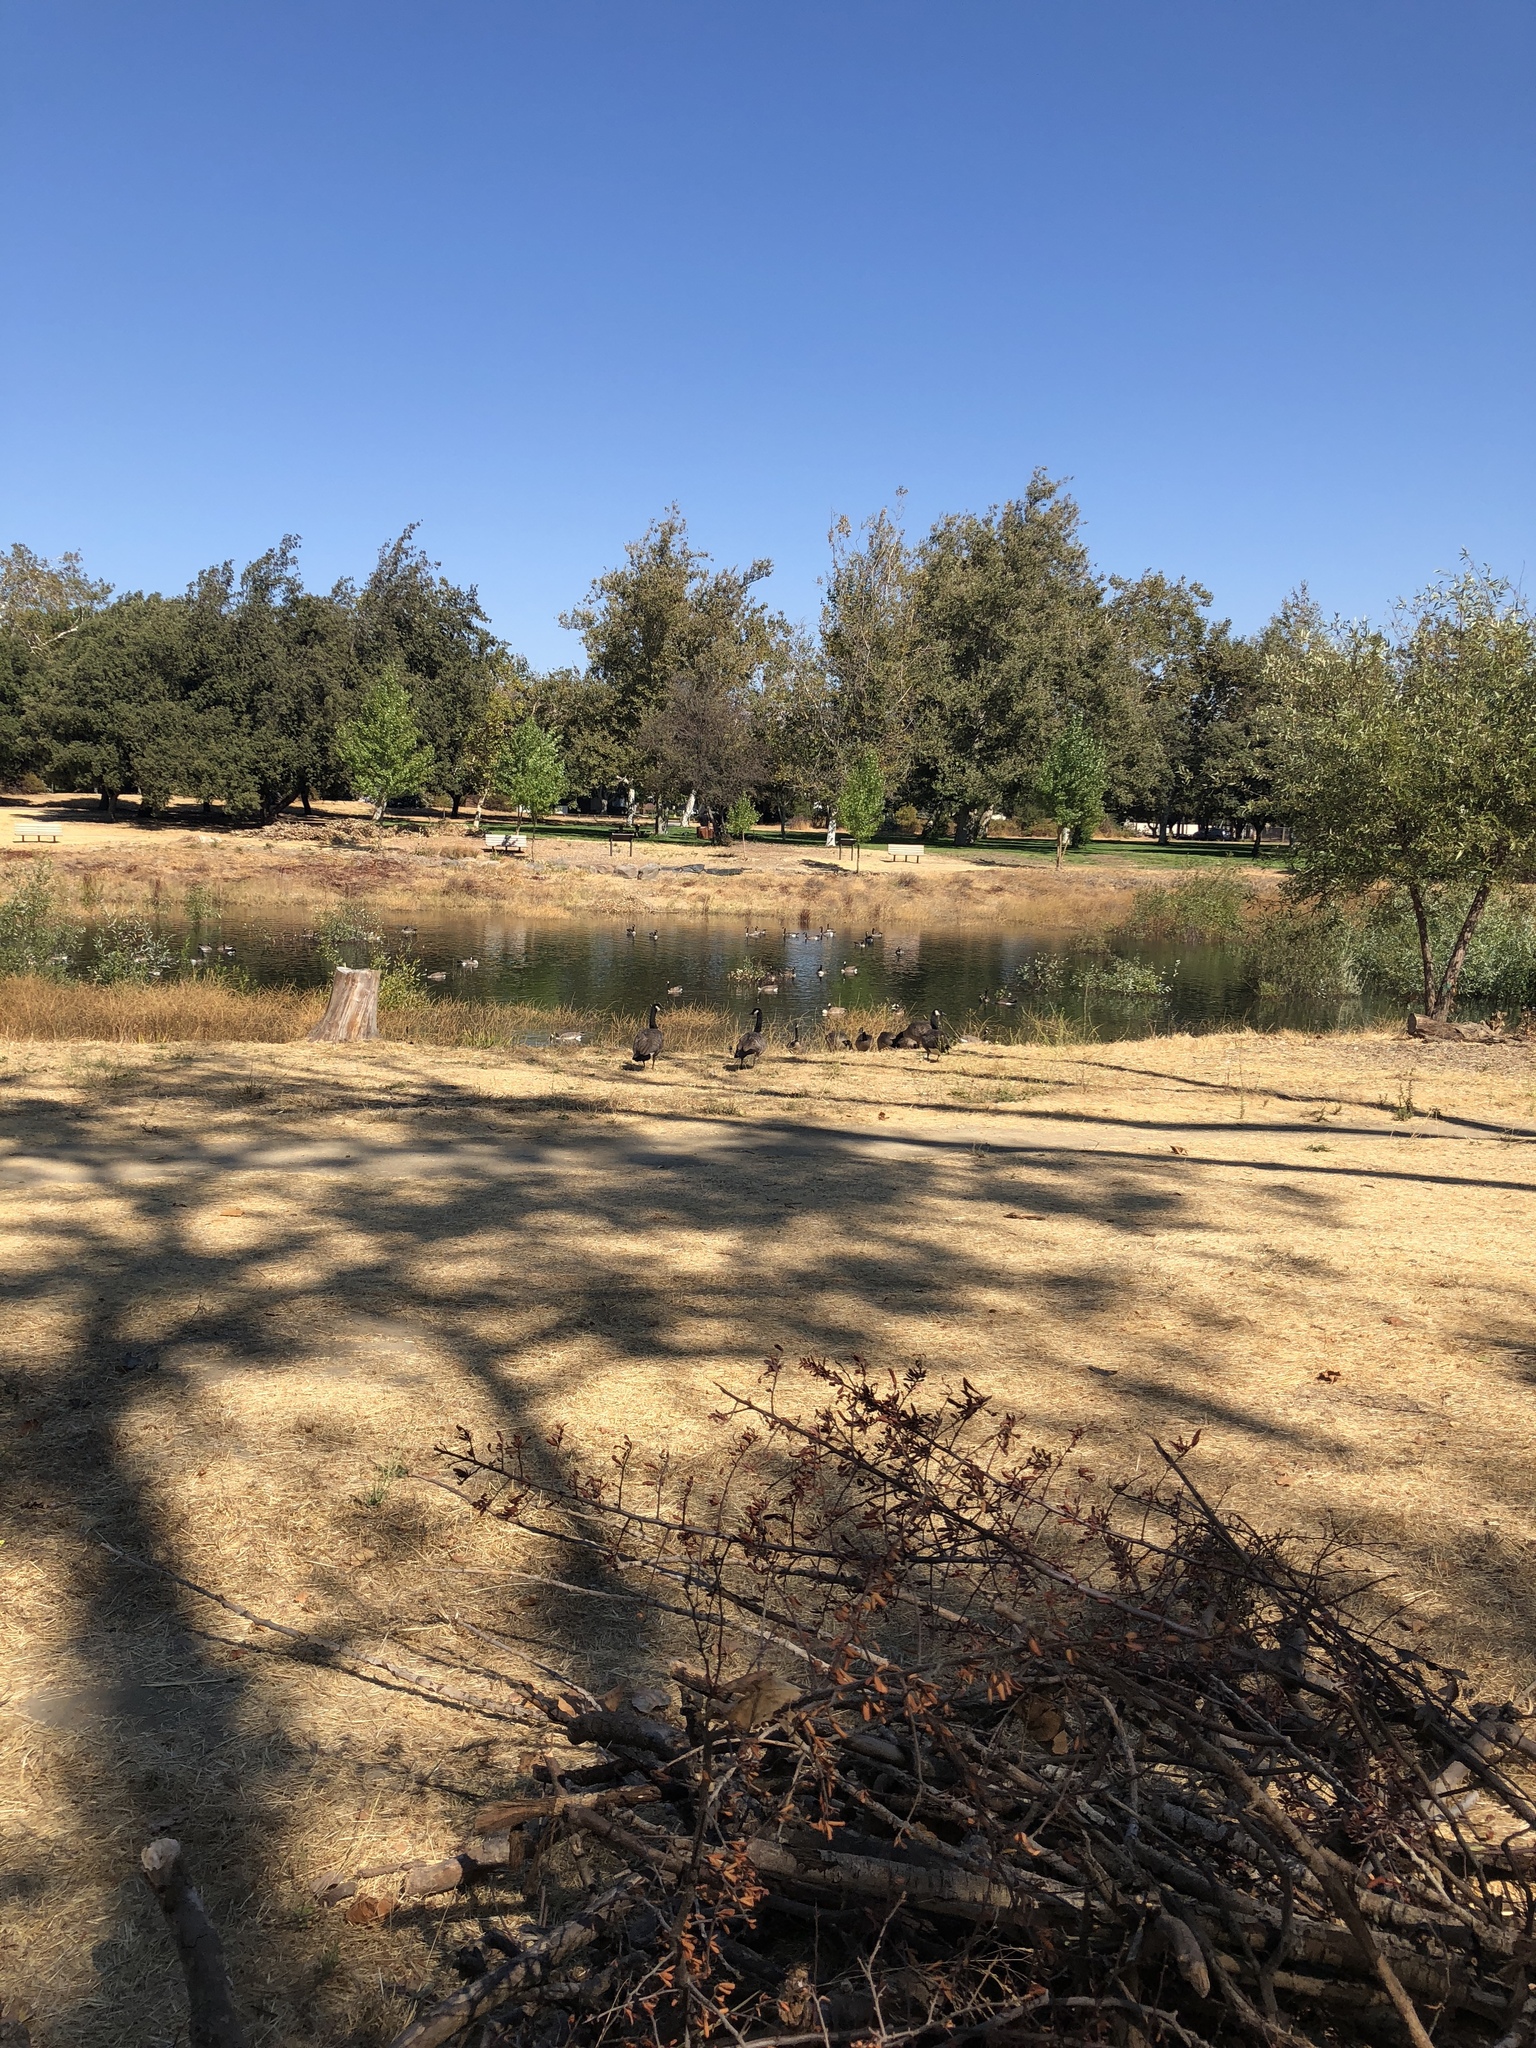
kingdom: Animalia
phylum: Chordata
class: Aves
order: Anseriformes
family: Anatidae
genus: Branta
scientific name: Branta canadensis
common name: Canada goose
